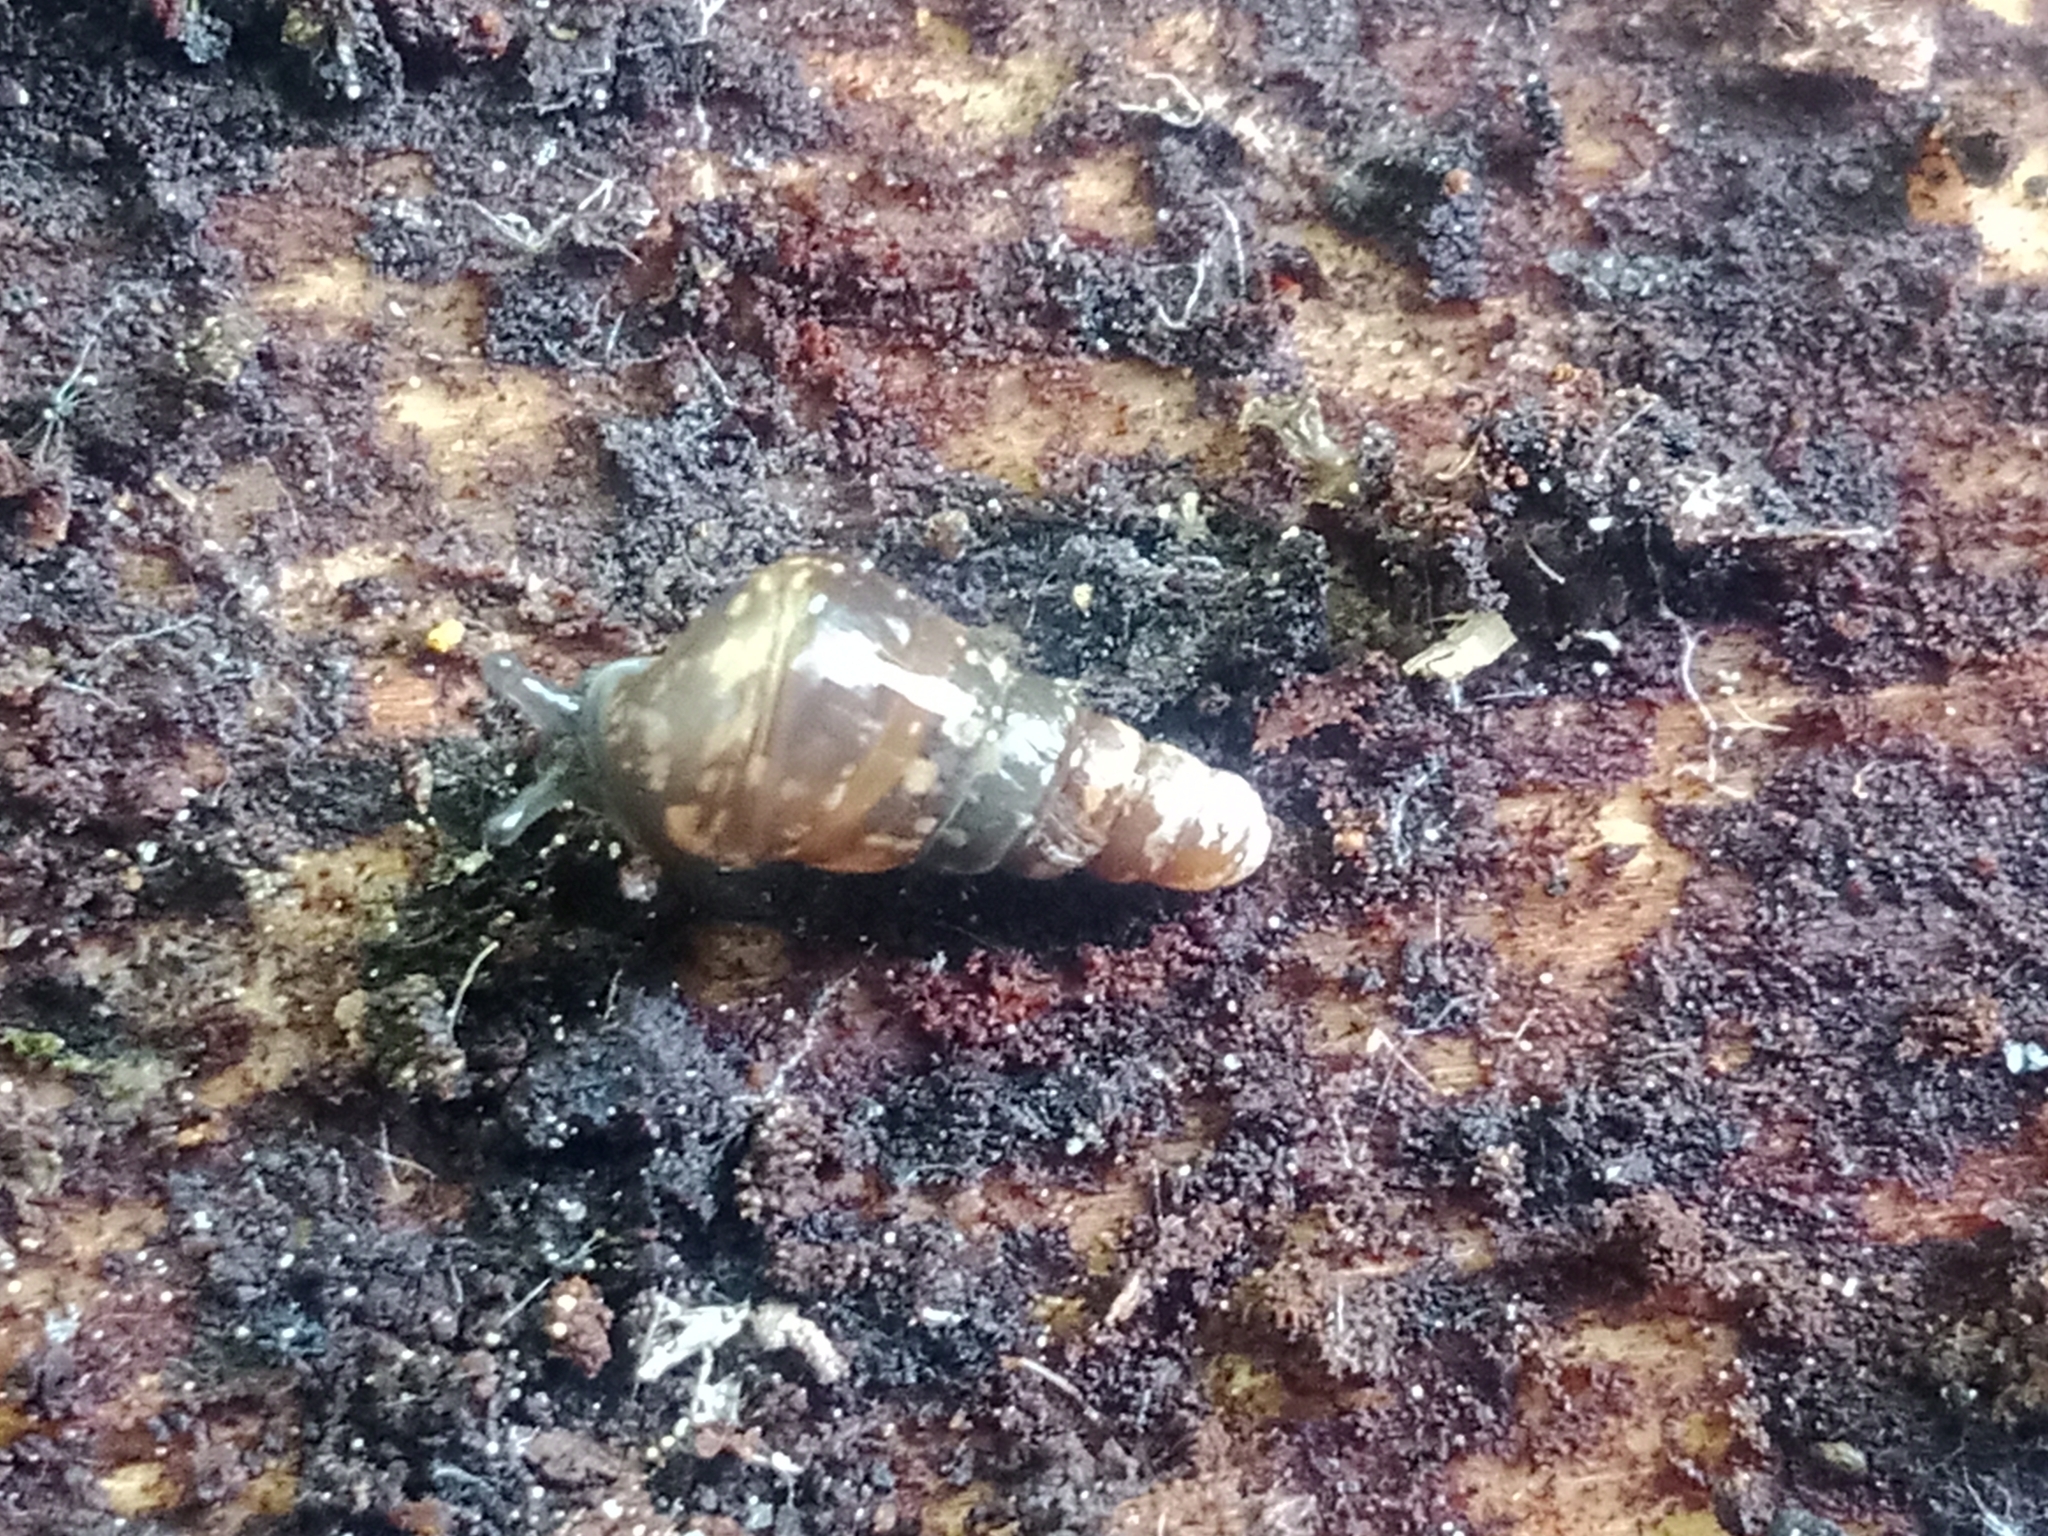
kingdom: Animalia
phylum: Mollusca
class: Gastropoda
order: Stylommatophora
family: Clausiliidae
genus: Cochlodina
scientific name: Cochlodina laminata
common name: Plaited door snail
